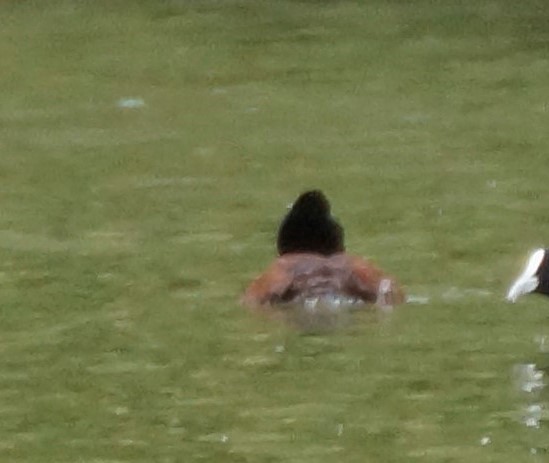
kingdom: Animalia
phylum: Chordata
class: Aves
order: Anseriformes
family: Anatidae
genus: Oxyura
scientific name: Oxyura australis
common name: Blue-billed duck
